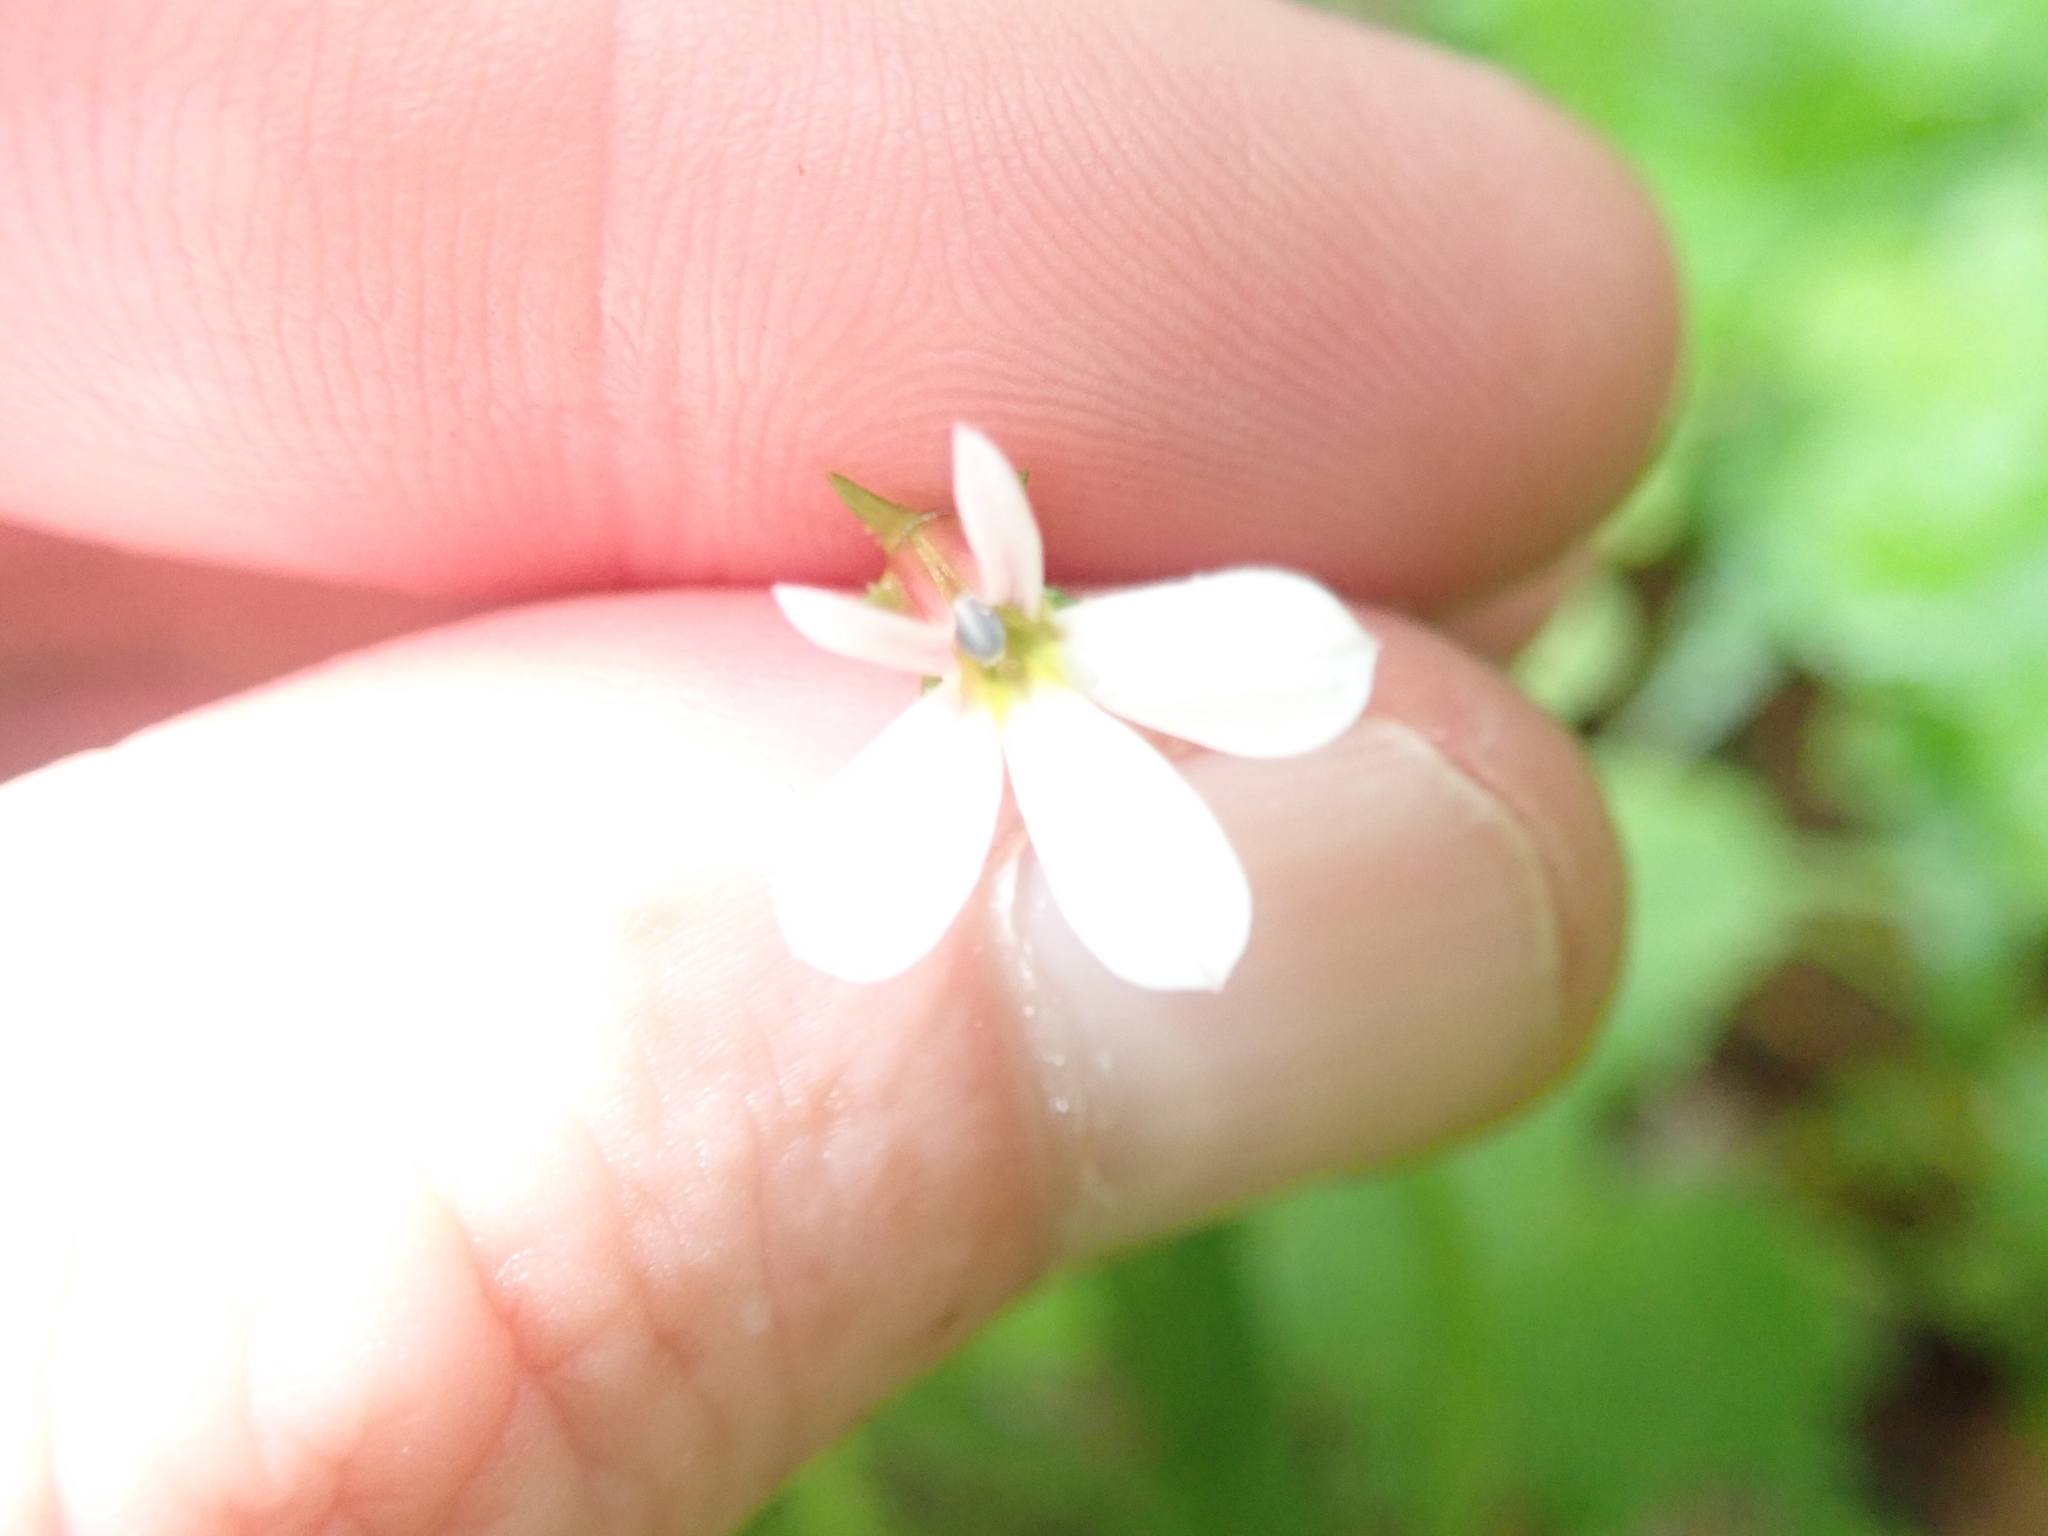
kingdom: Plantae
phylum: Tracheophyta
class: Magnoliopsida
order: Asterales
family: Campanulaceae
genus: Lobelia
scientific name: Lobelia purpurascens
